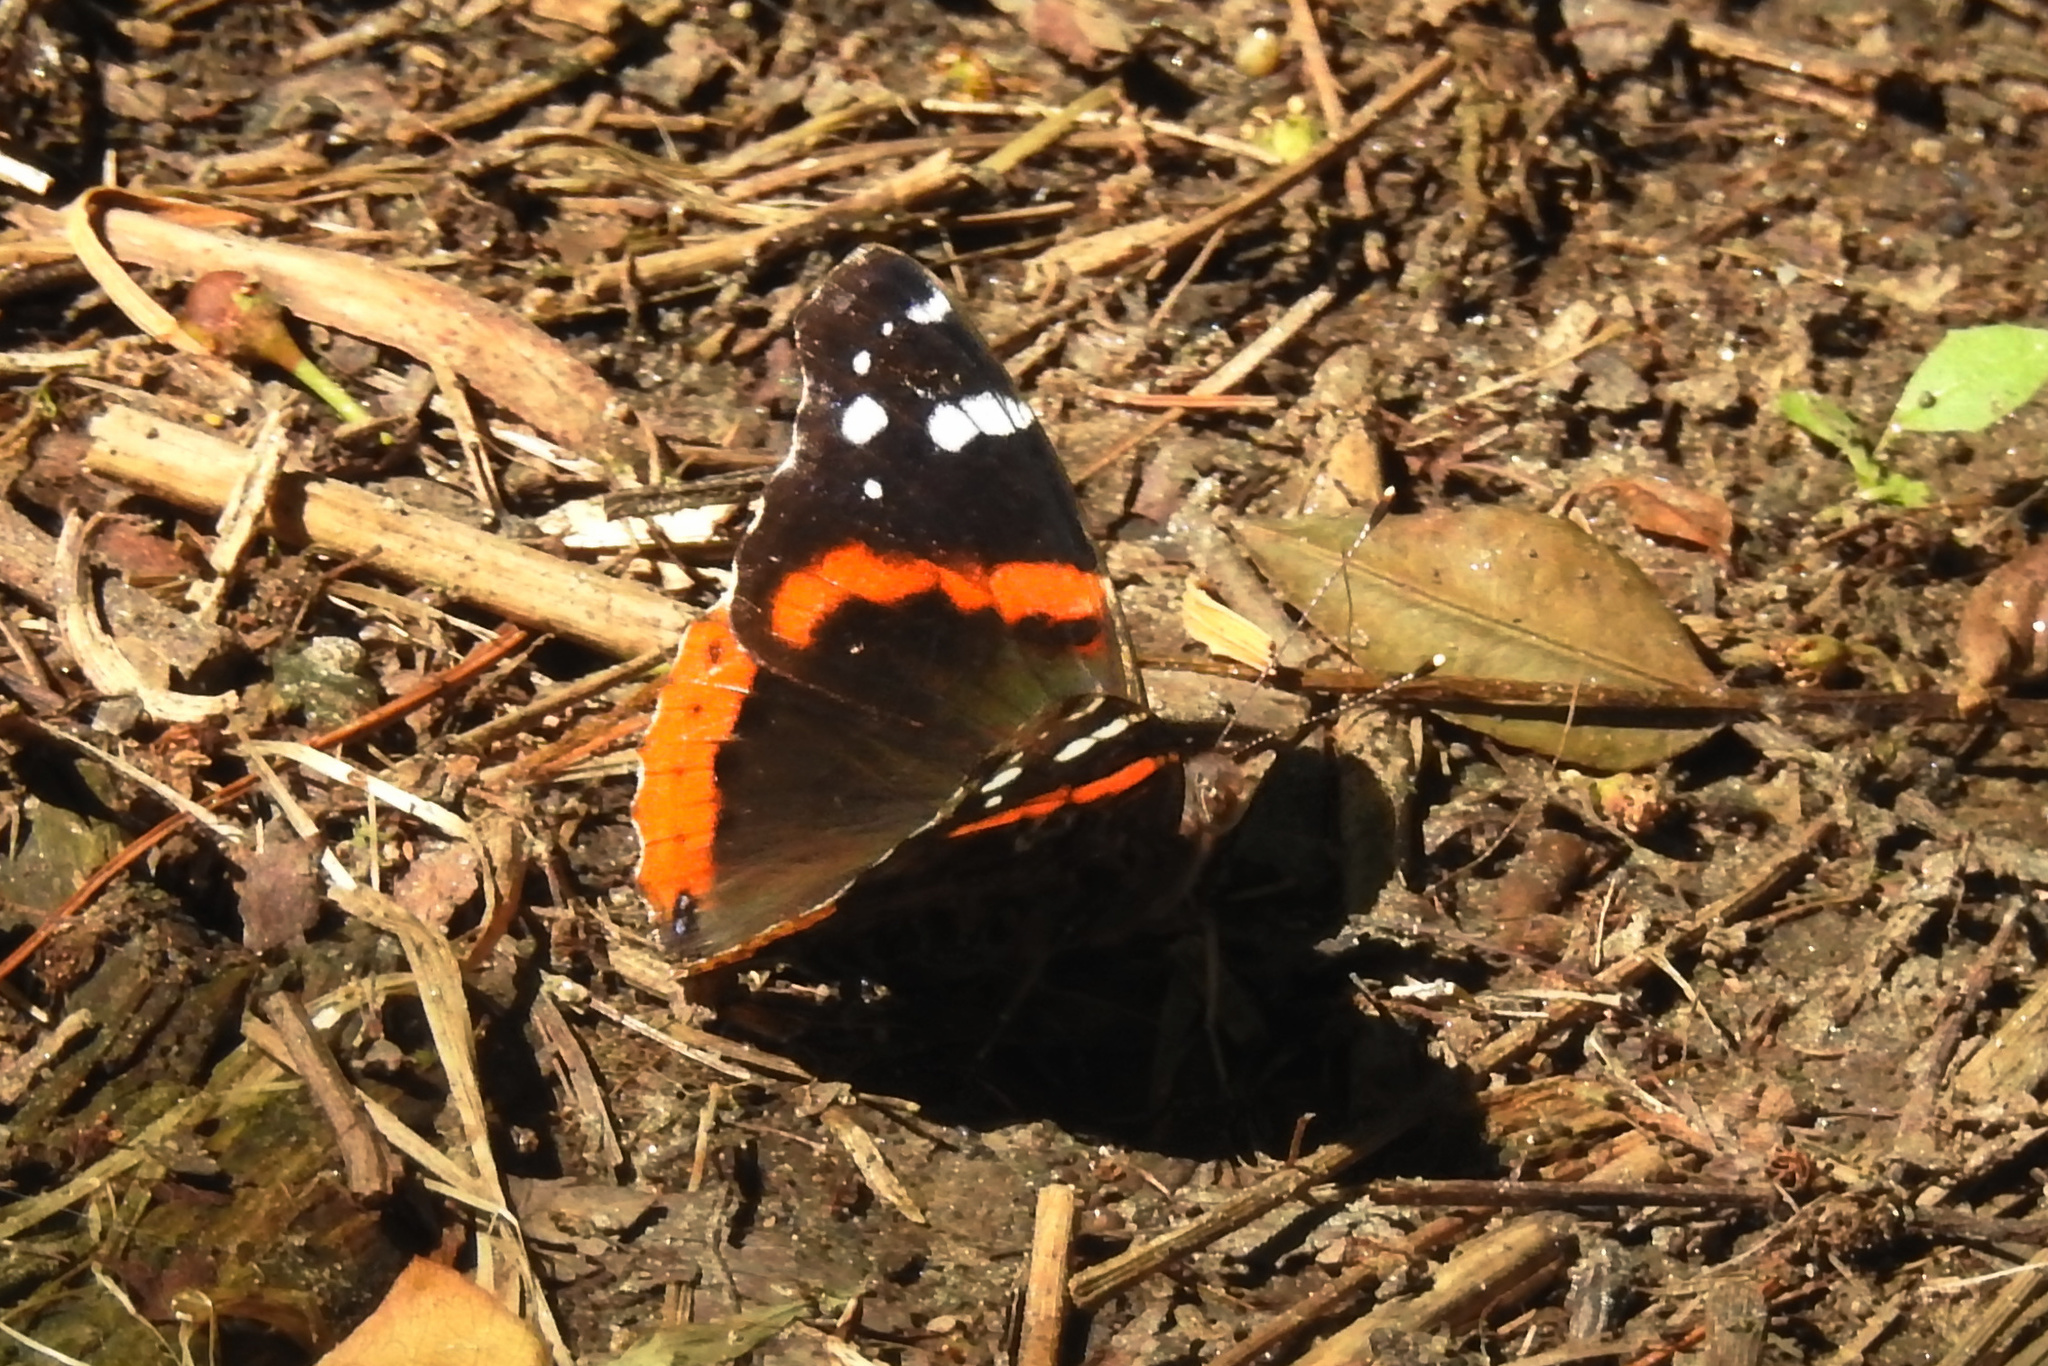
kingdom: Animalia
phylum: Arthropoda
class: Insecta
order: Lepidoptera
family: Nymphalidae
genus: Vanessa
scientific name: Vanessa atalanta
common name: Red admiral
